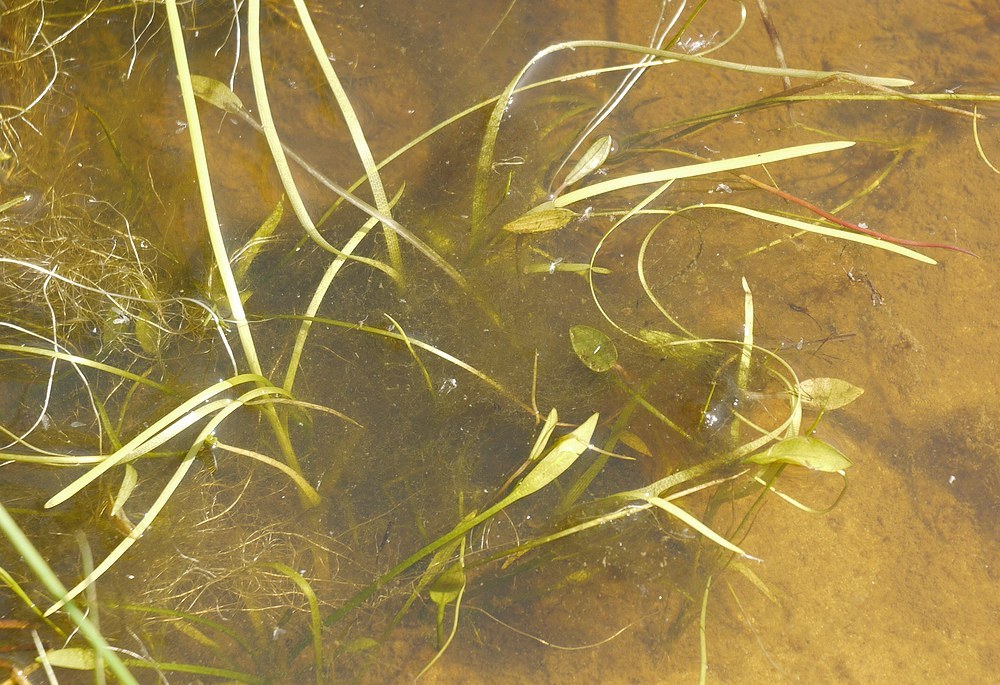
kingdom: Plantae
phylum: Tracheophyta
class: Liliopsida
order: Alismatales
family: Potamogetonaceae
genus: Potamogeton
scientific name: Potamogeton natans
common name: Broad-leaved pondweed
